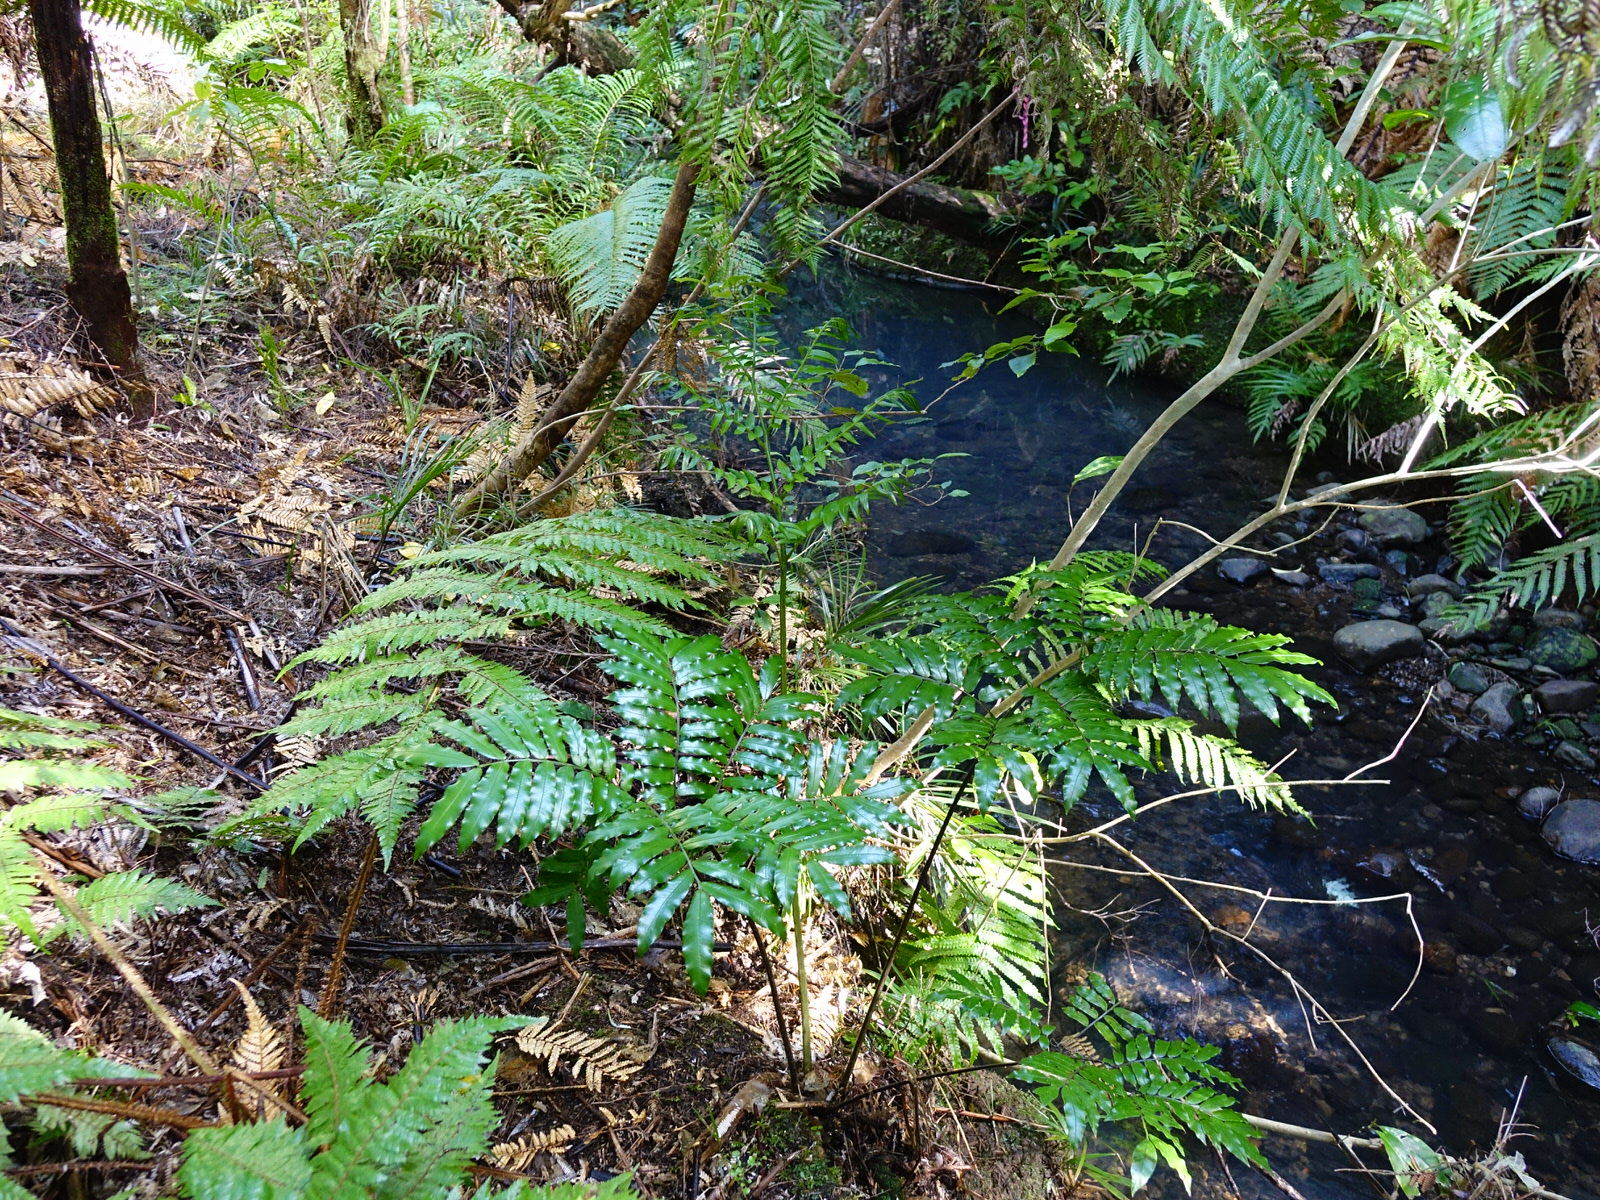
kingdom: Plantae
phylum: Tracheophyta
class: Polypodiopsida
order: Marattiales
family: Marattiaceae
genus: Ptisana
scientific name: Ptisana salicina
